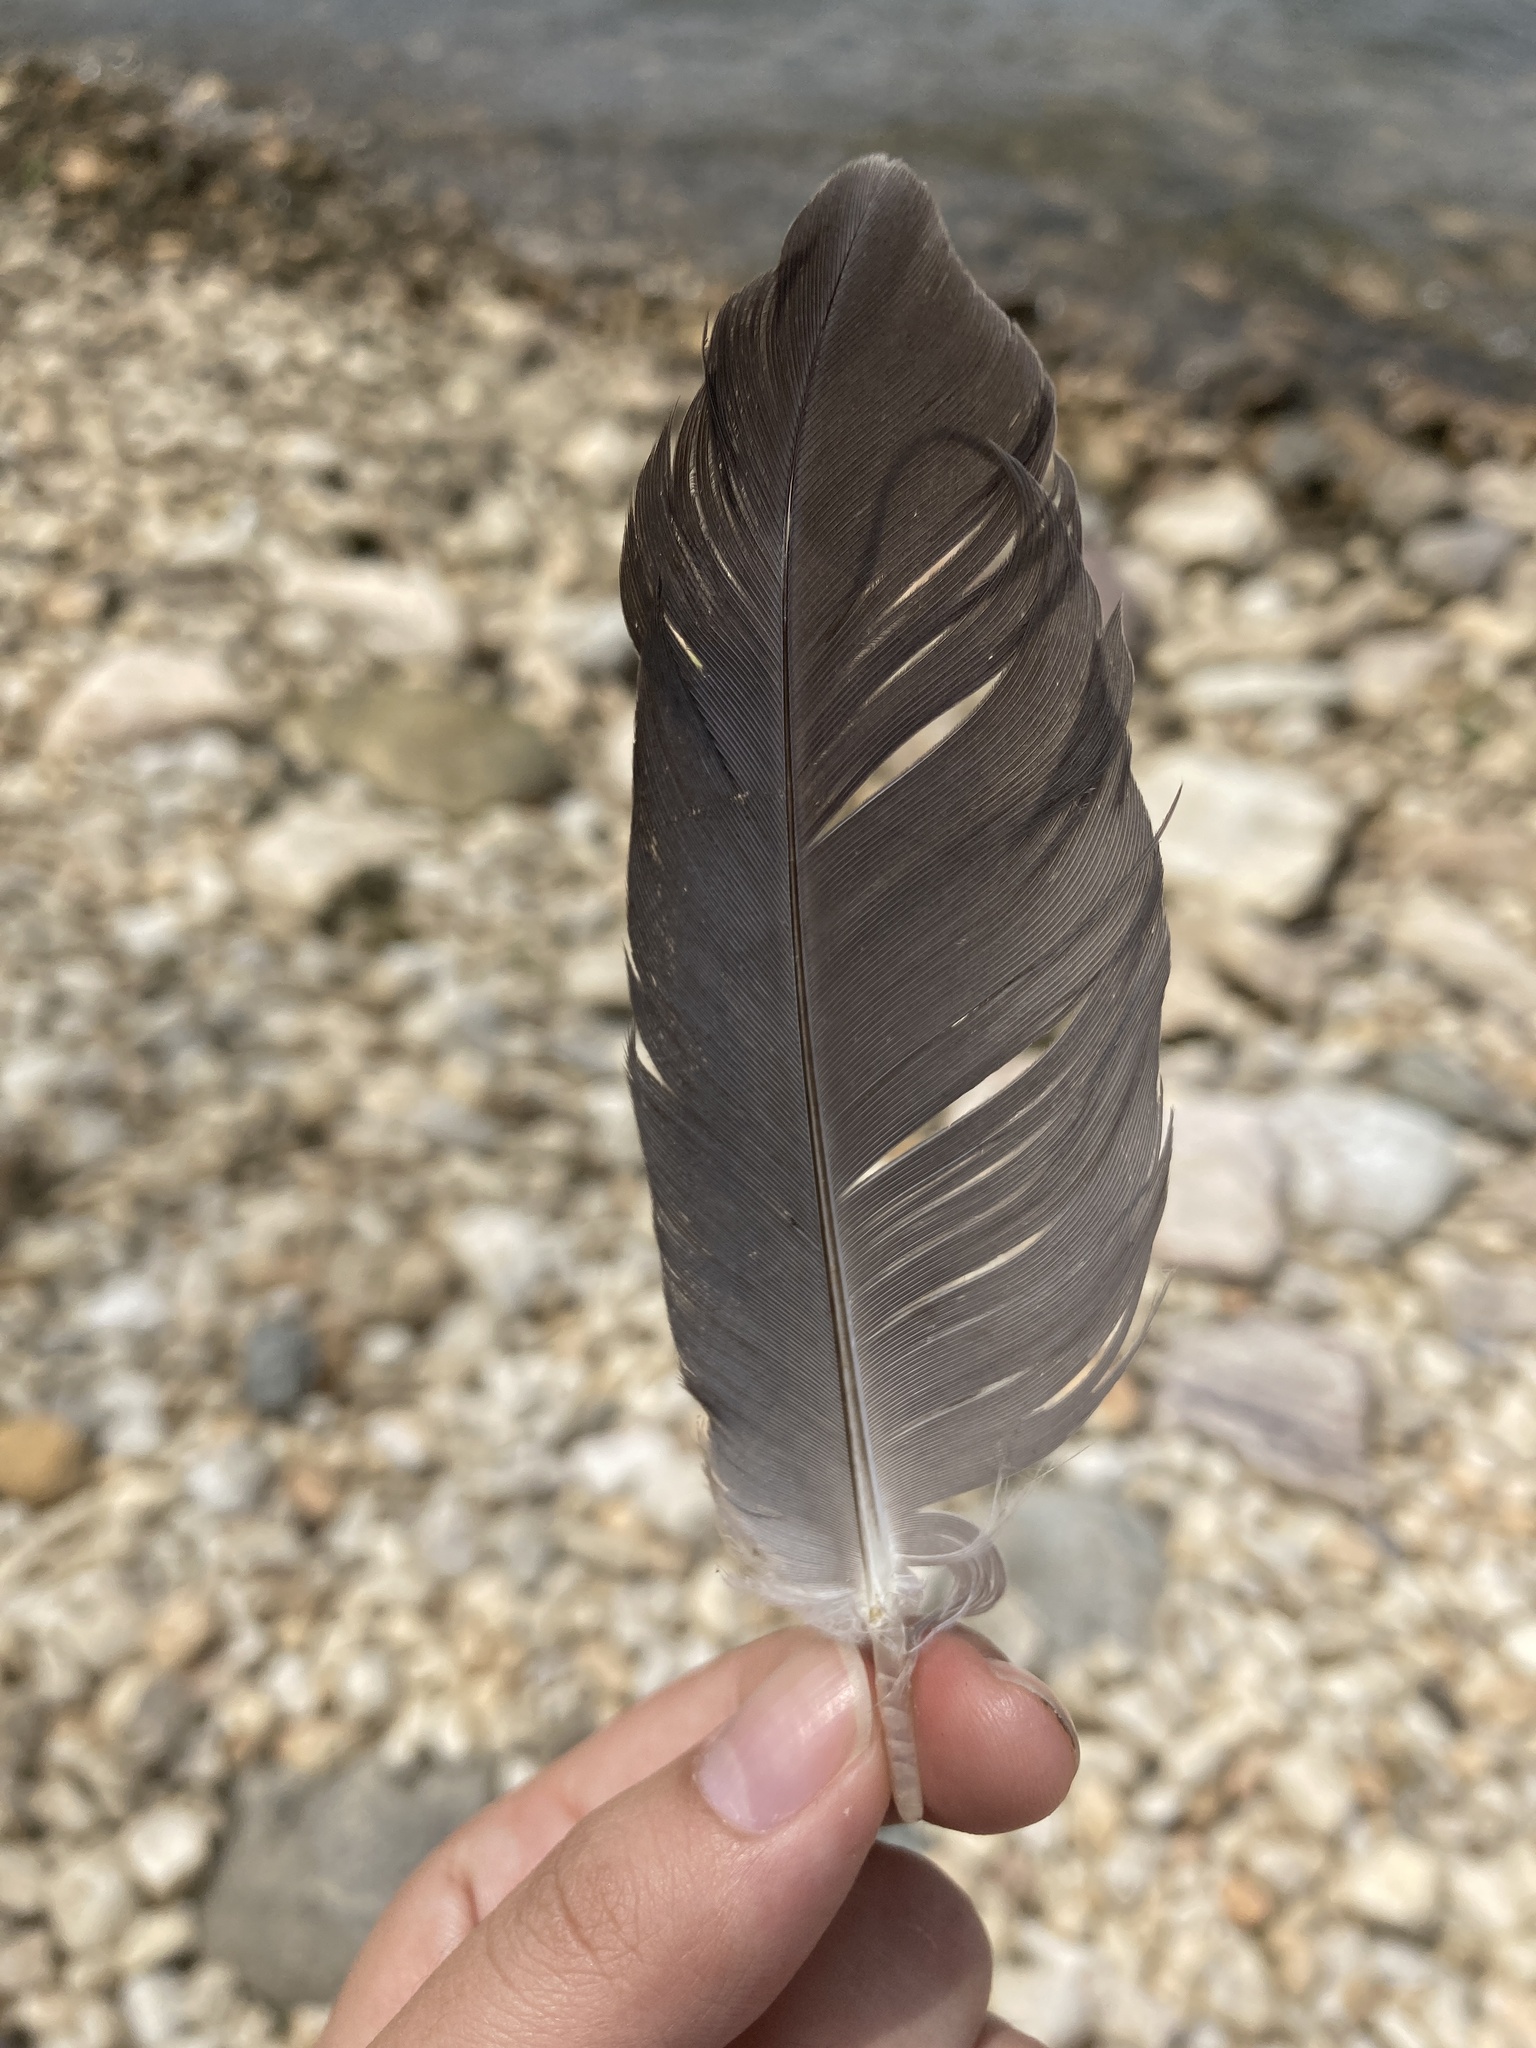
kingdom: Animalia
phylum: Chordata
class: Aves
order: Pelecaniformes
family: Ardeidae
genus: Ardea
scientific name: Ardea herodias
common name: Great blue heron
